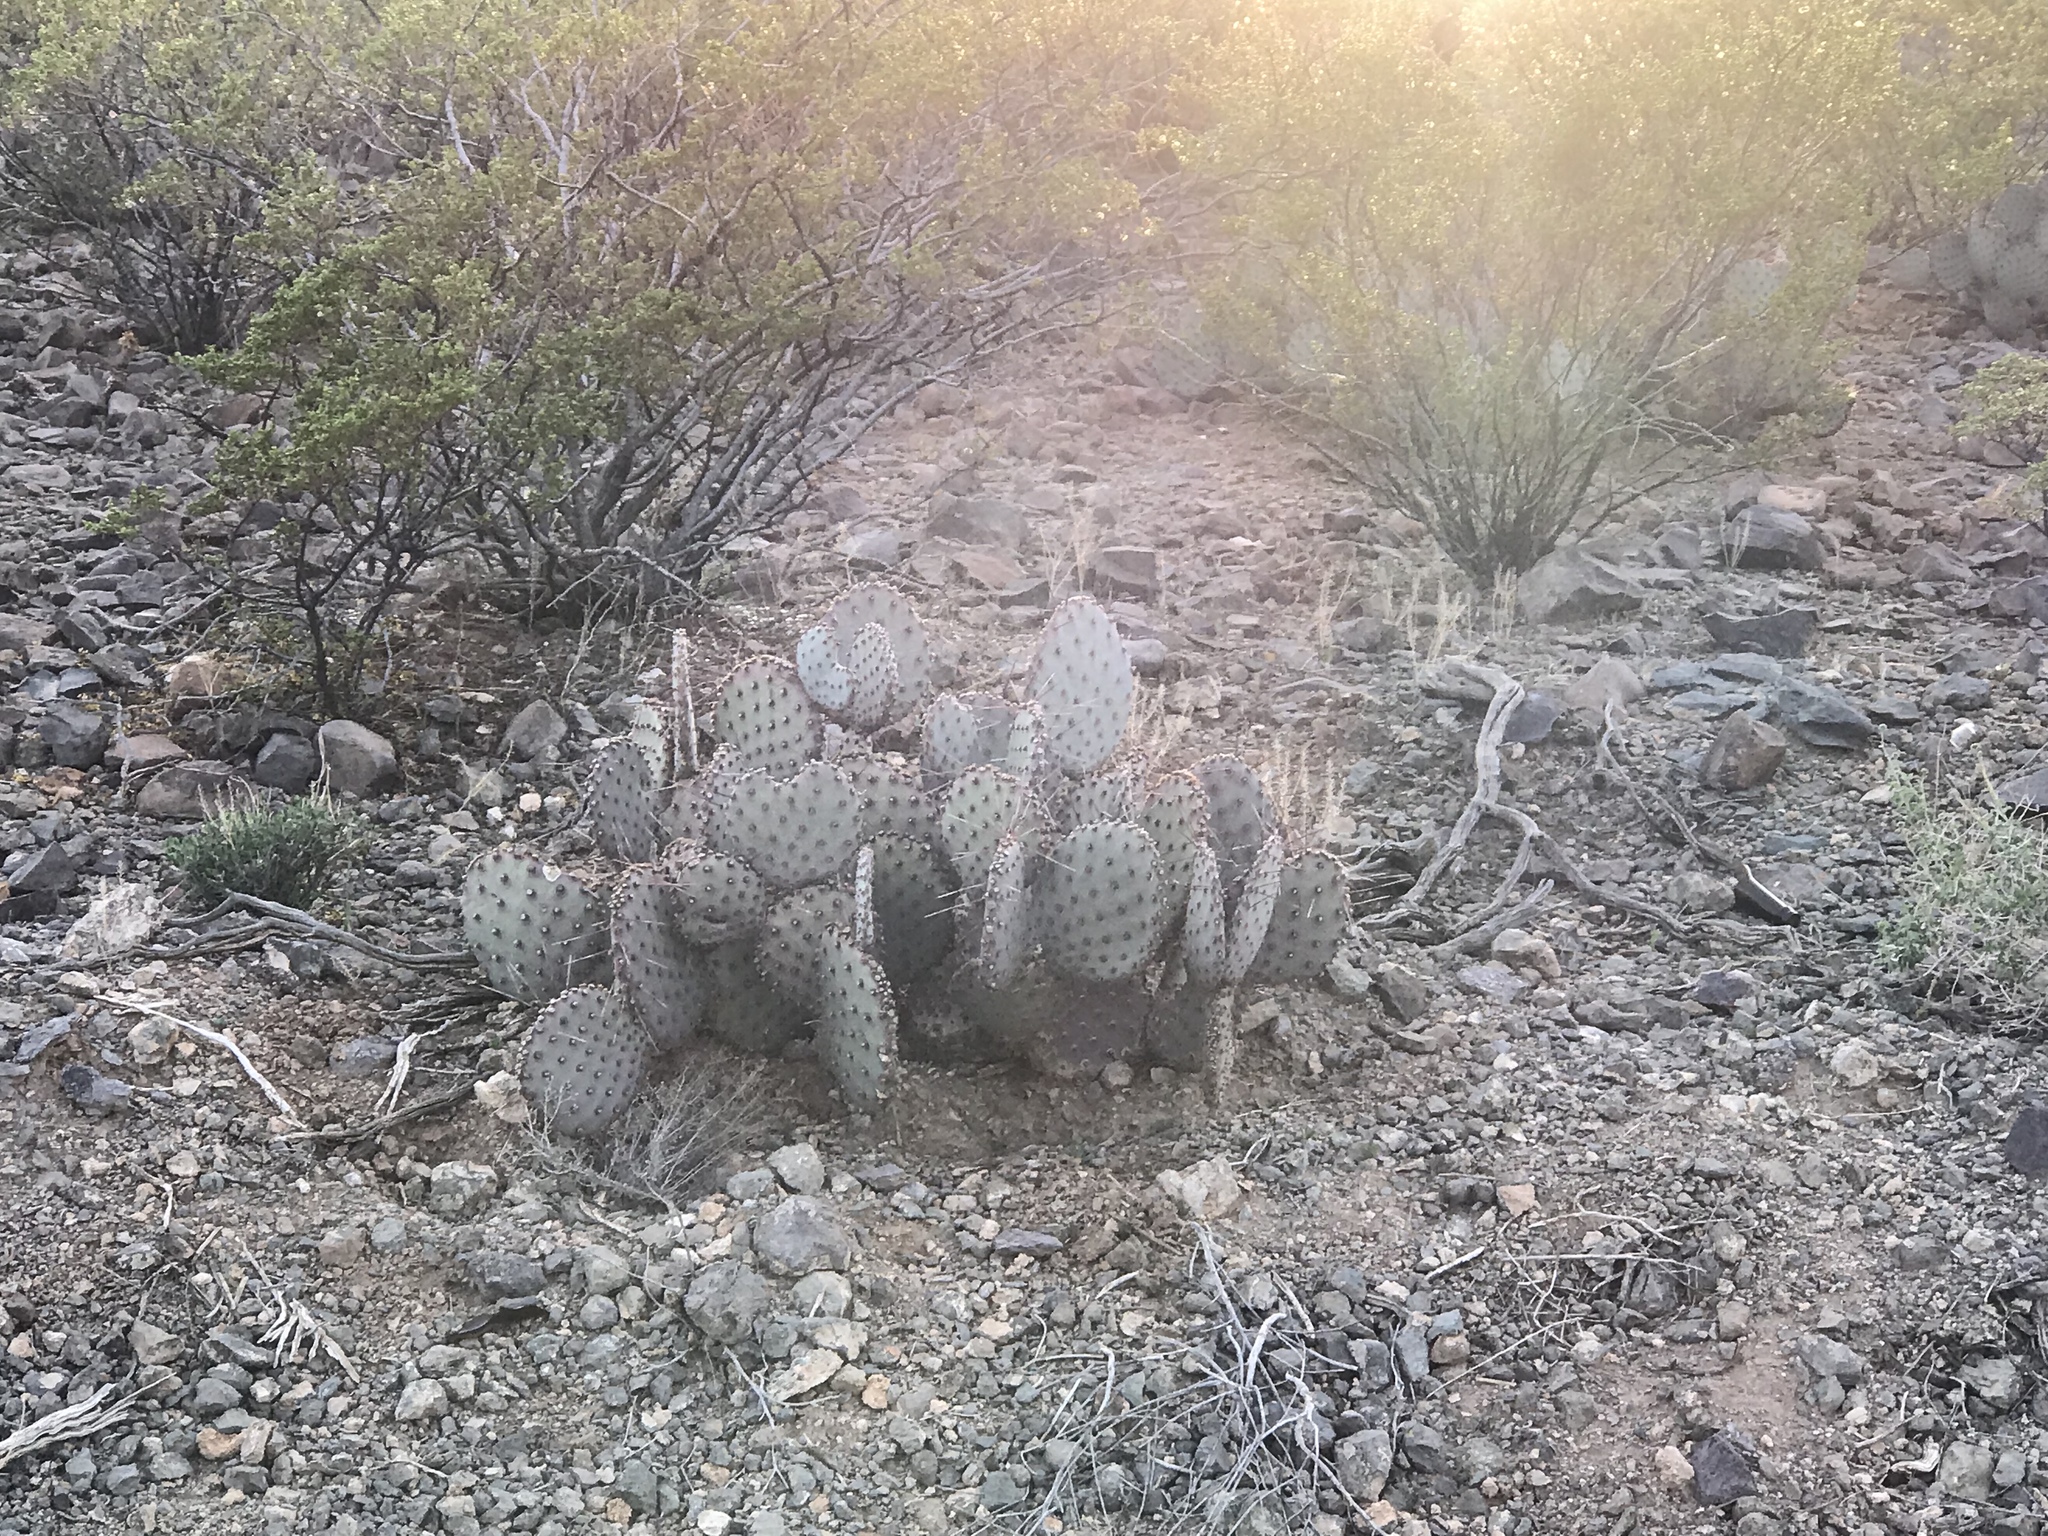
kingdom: Plantae
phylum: Tracheophyta
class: Magnoliopsida
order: Caryophyllales
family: Cactaceae
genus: Opuntia
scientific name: Opuntia macrocentra
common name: Purple prickly-pear
